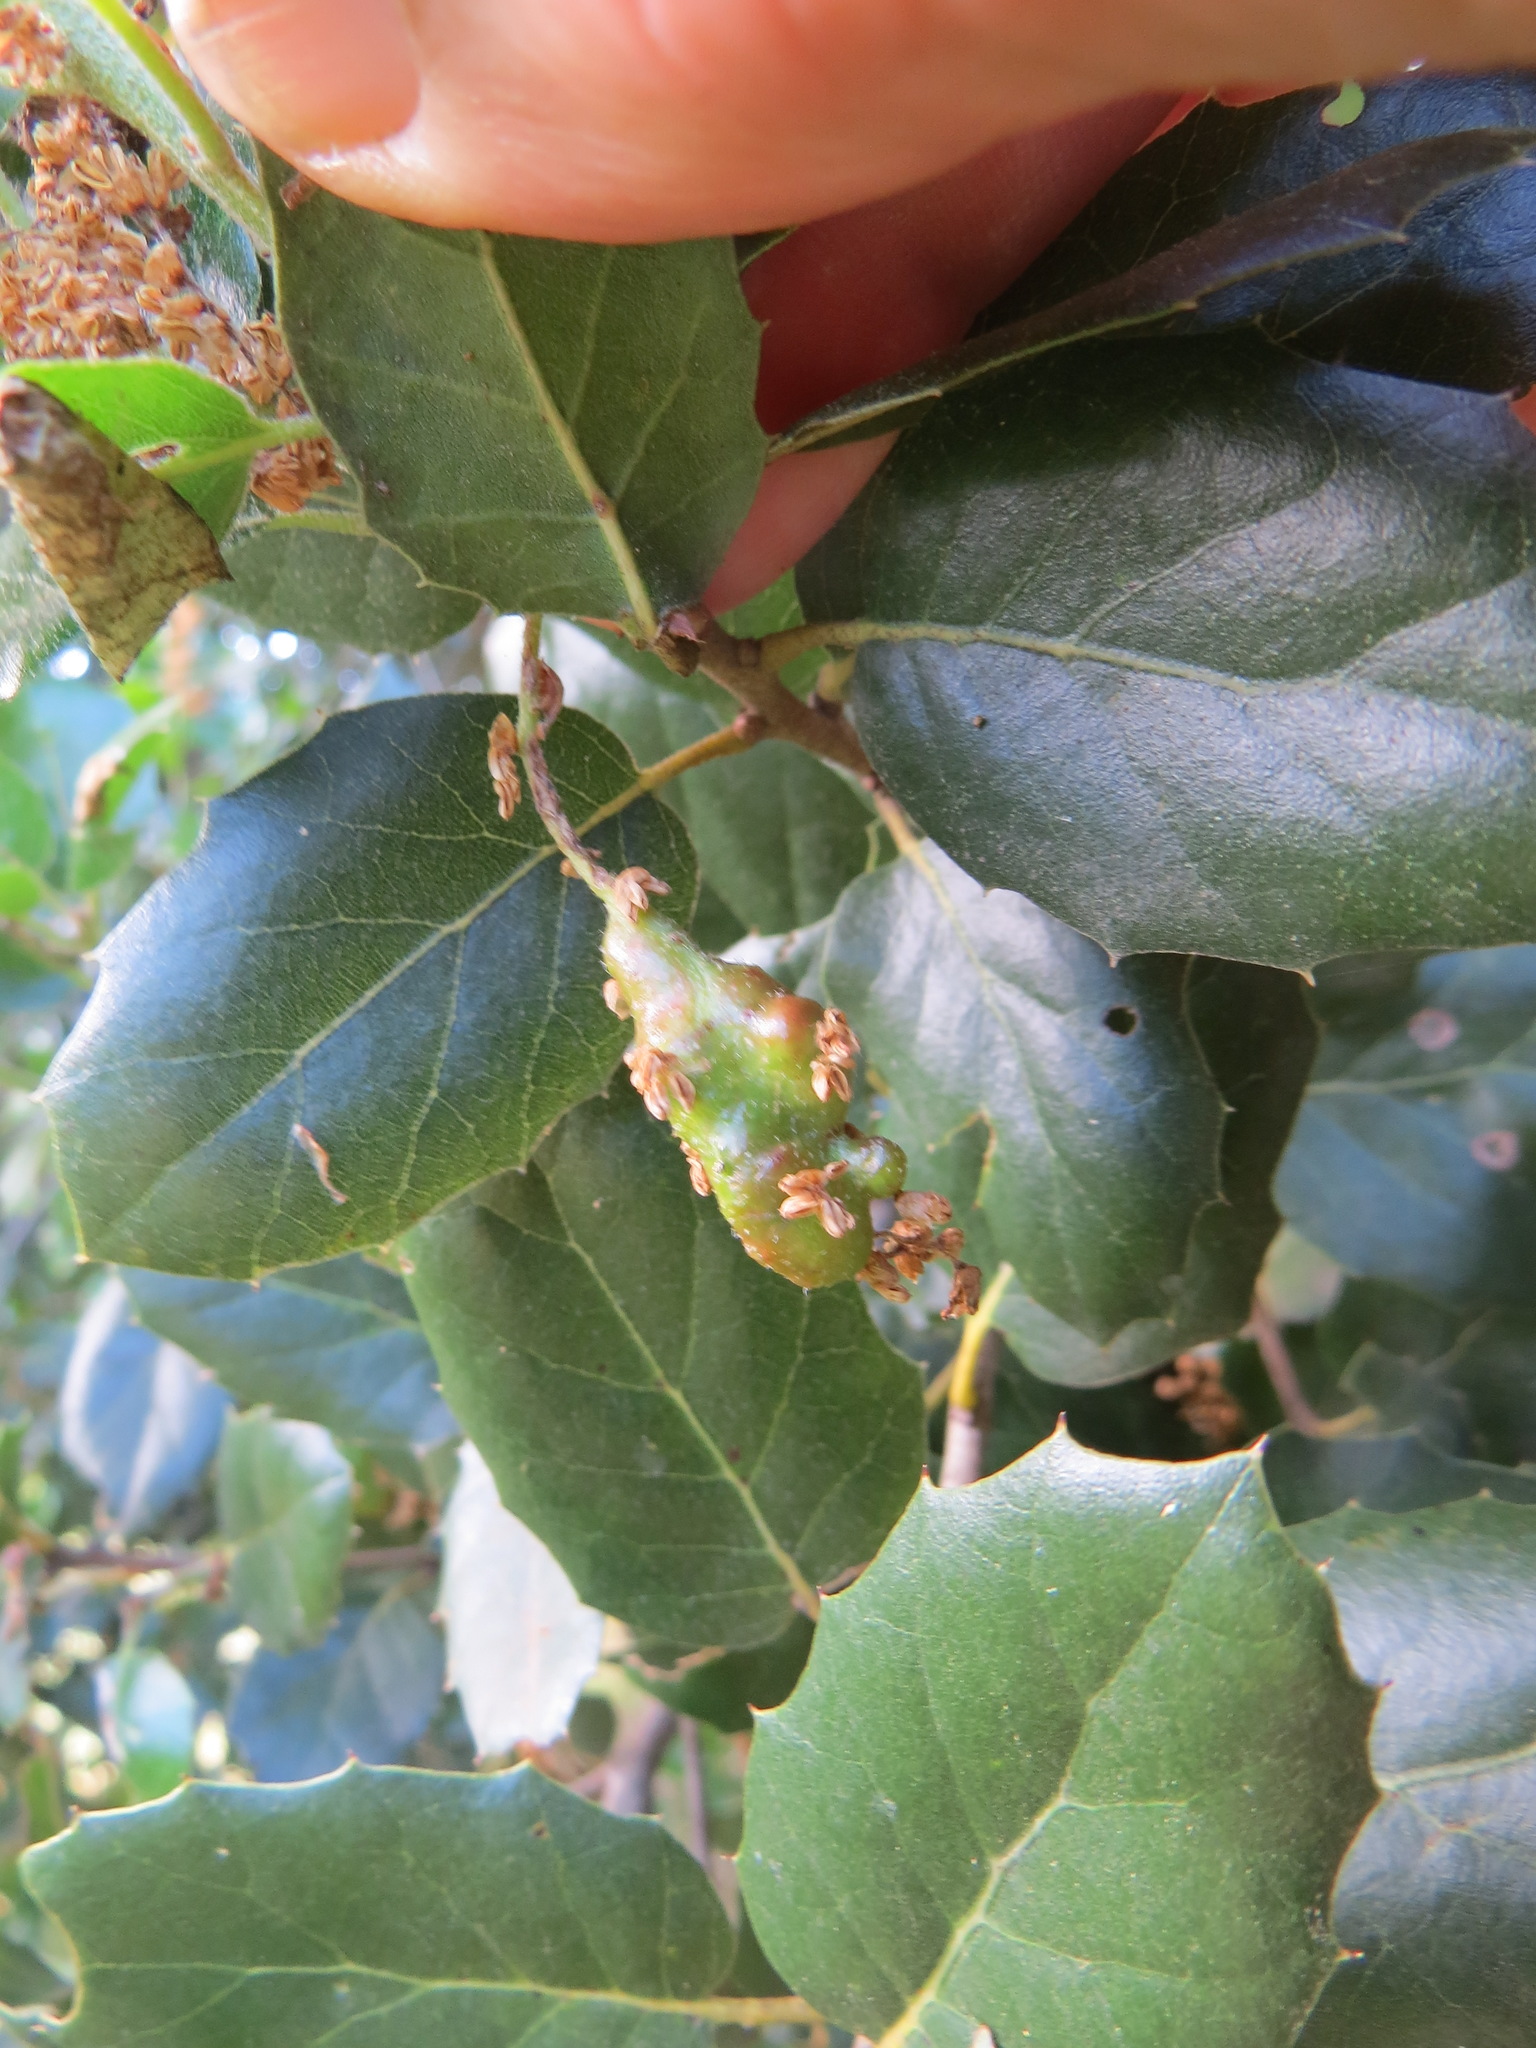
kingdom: Animalia
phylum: Arthropoda
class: Insecta
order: Hymenoptera
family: Cynipidae
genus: Callirhytis
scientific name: Callirhytis
